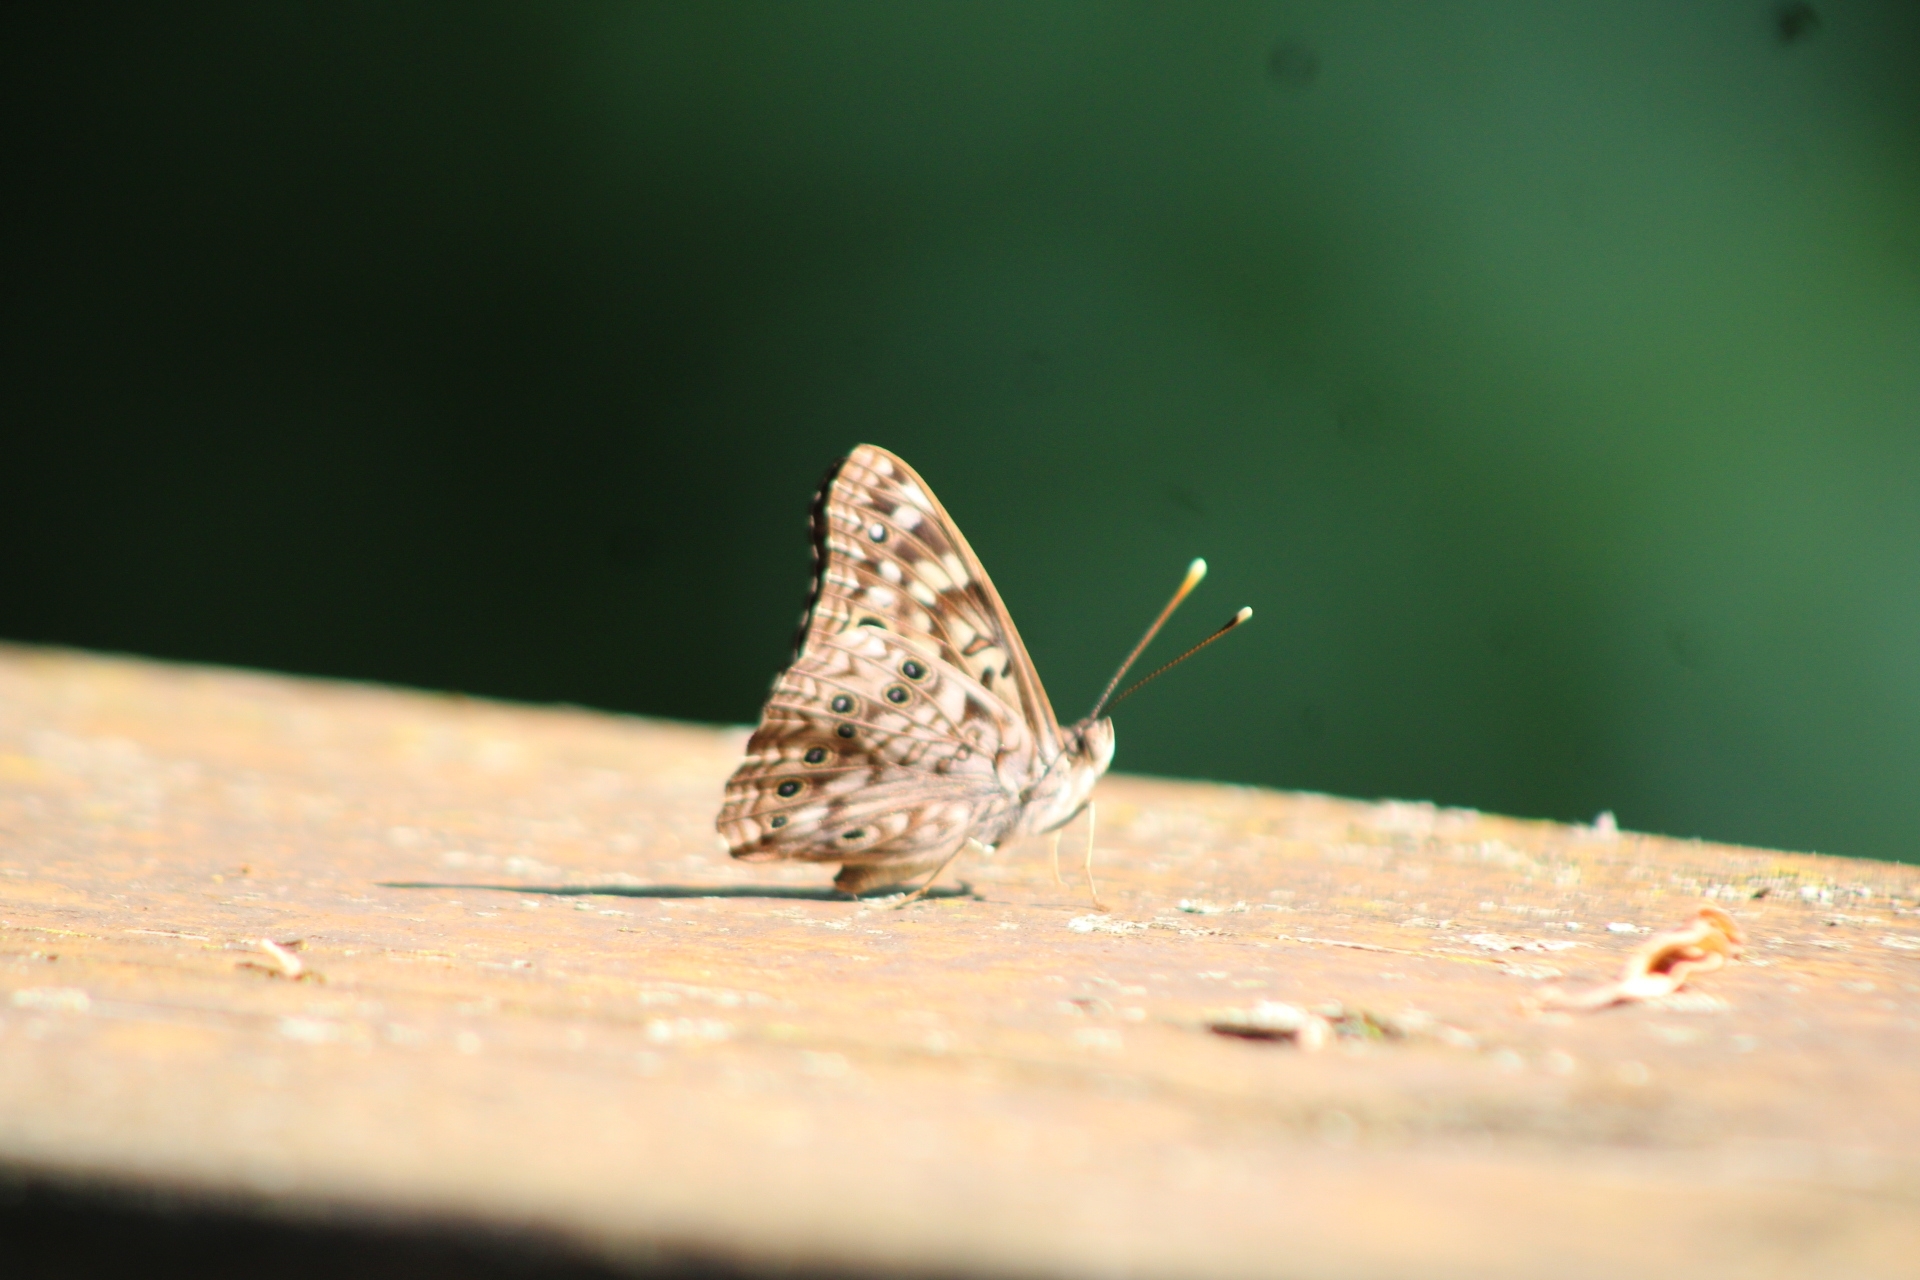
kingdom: Animalia
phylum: Arthropoda
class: Insecta
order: Lepidoptera
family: Nymphalidae
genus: Asterocampa
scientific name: Asterocampa celtis
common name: Hackberry emperor
